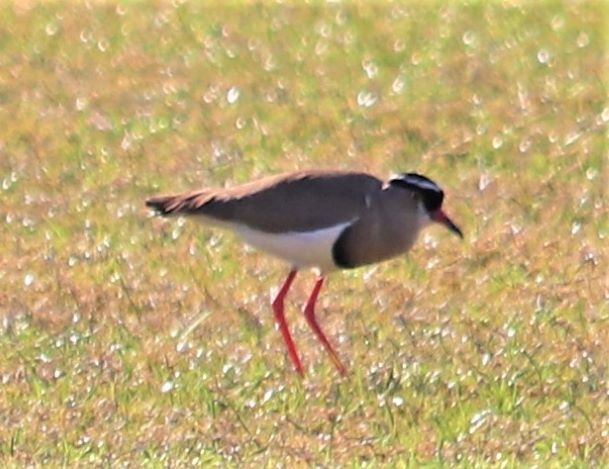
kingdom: Animalia
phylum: Chordata
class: Aves
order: Charadriiformes
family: Charadriidae
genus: Vanellus
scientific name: Vanellus coronatus
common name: Crowned lapwing
